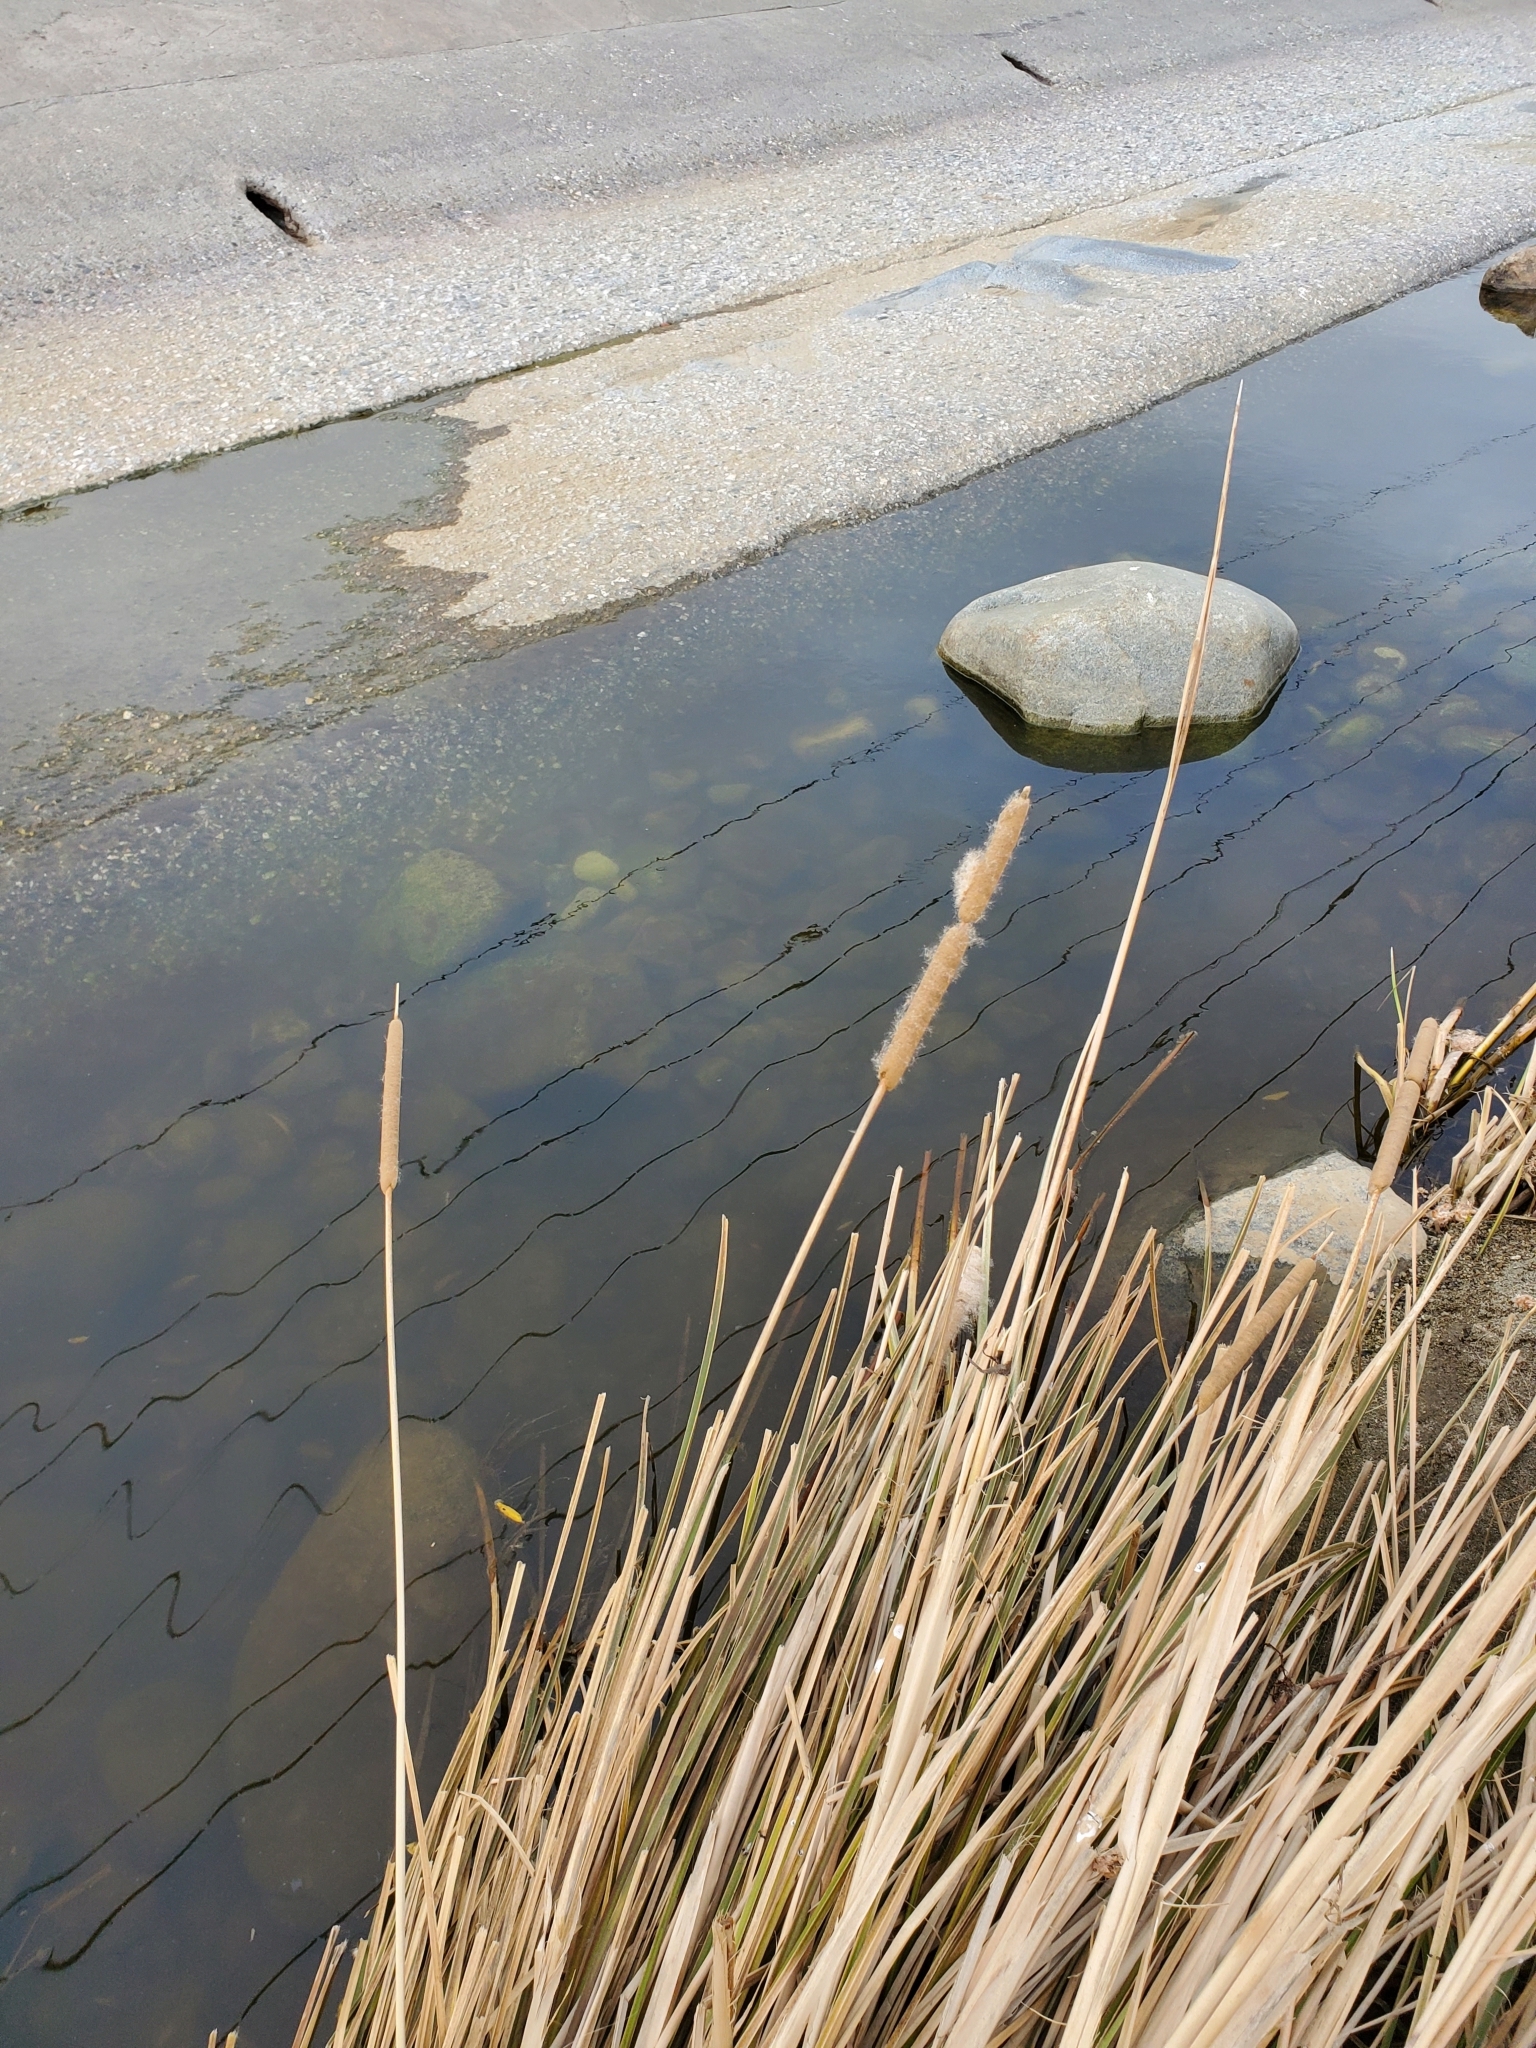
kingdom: Plantae
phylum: Tracheophyta
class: Liliopsida
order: Poales
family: Typhaceae
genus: Typha
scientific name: Typha domingensis
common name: Southern cattail
